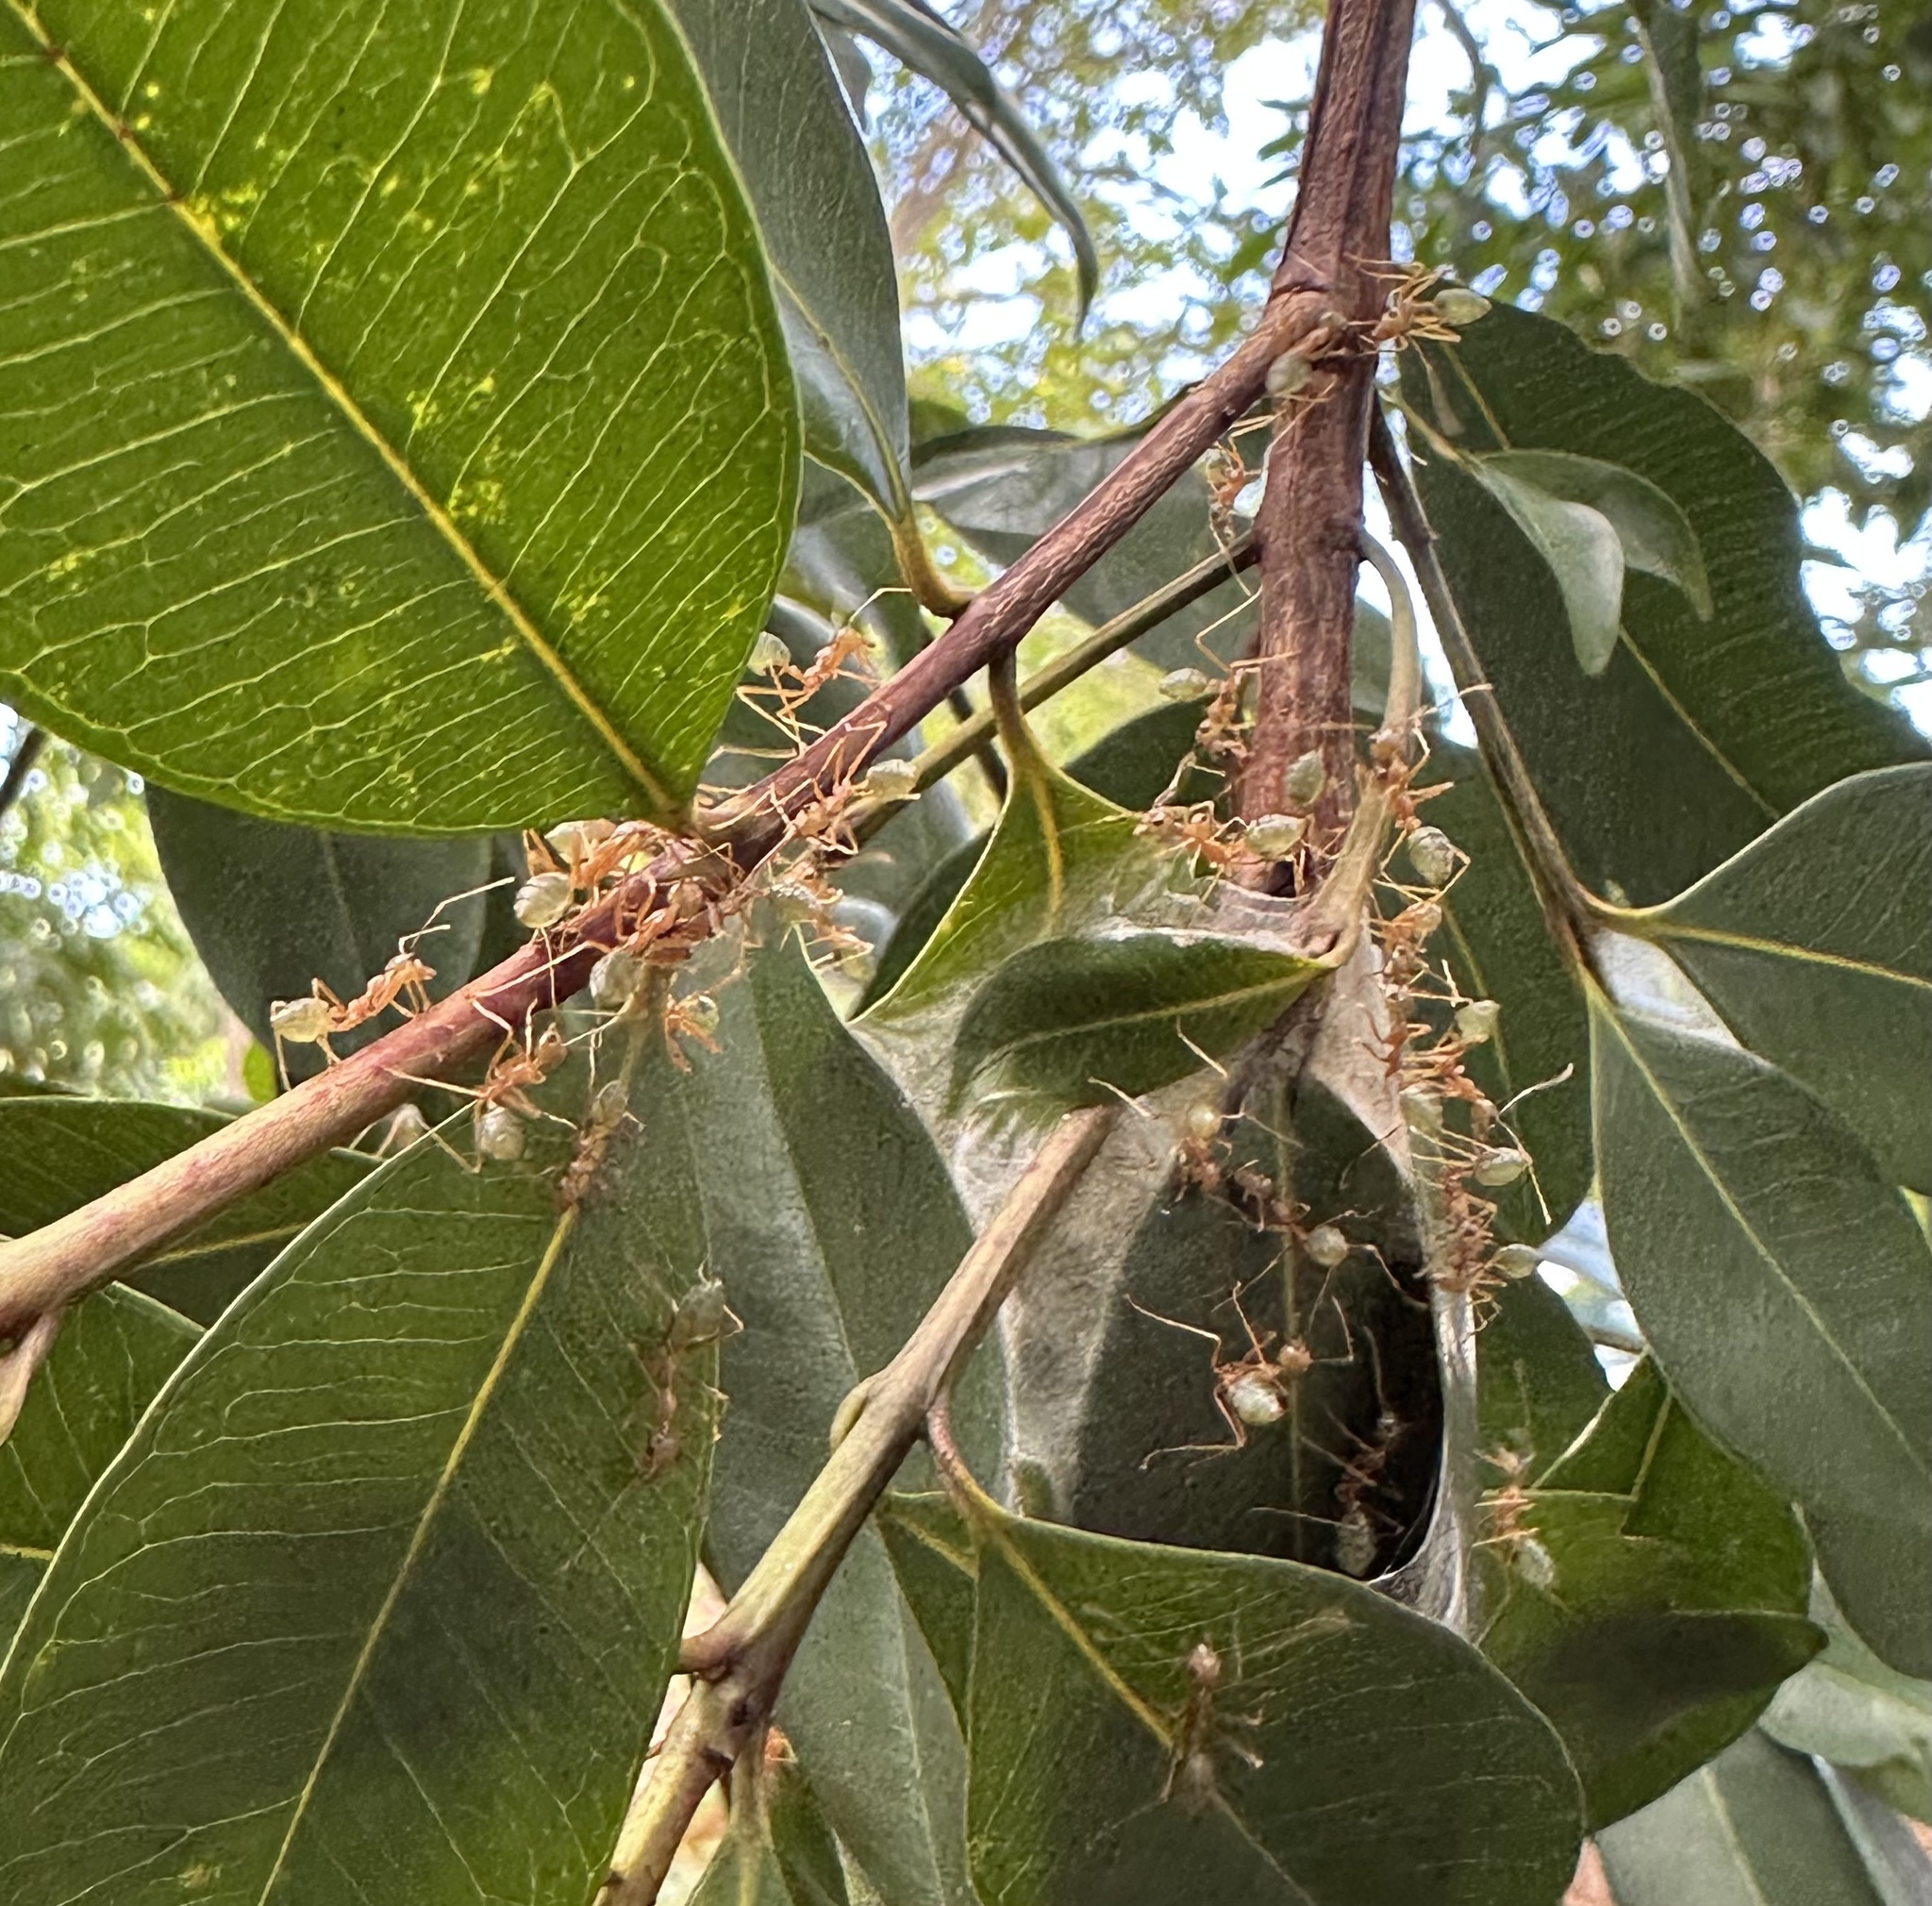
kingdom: Animalia
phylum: Arthropoda
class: Insecta
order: Hymenoptera
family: Formicidae
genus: Oecophylla
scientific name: Oecophylla smaragdina
